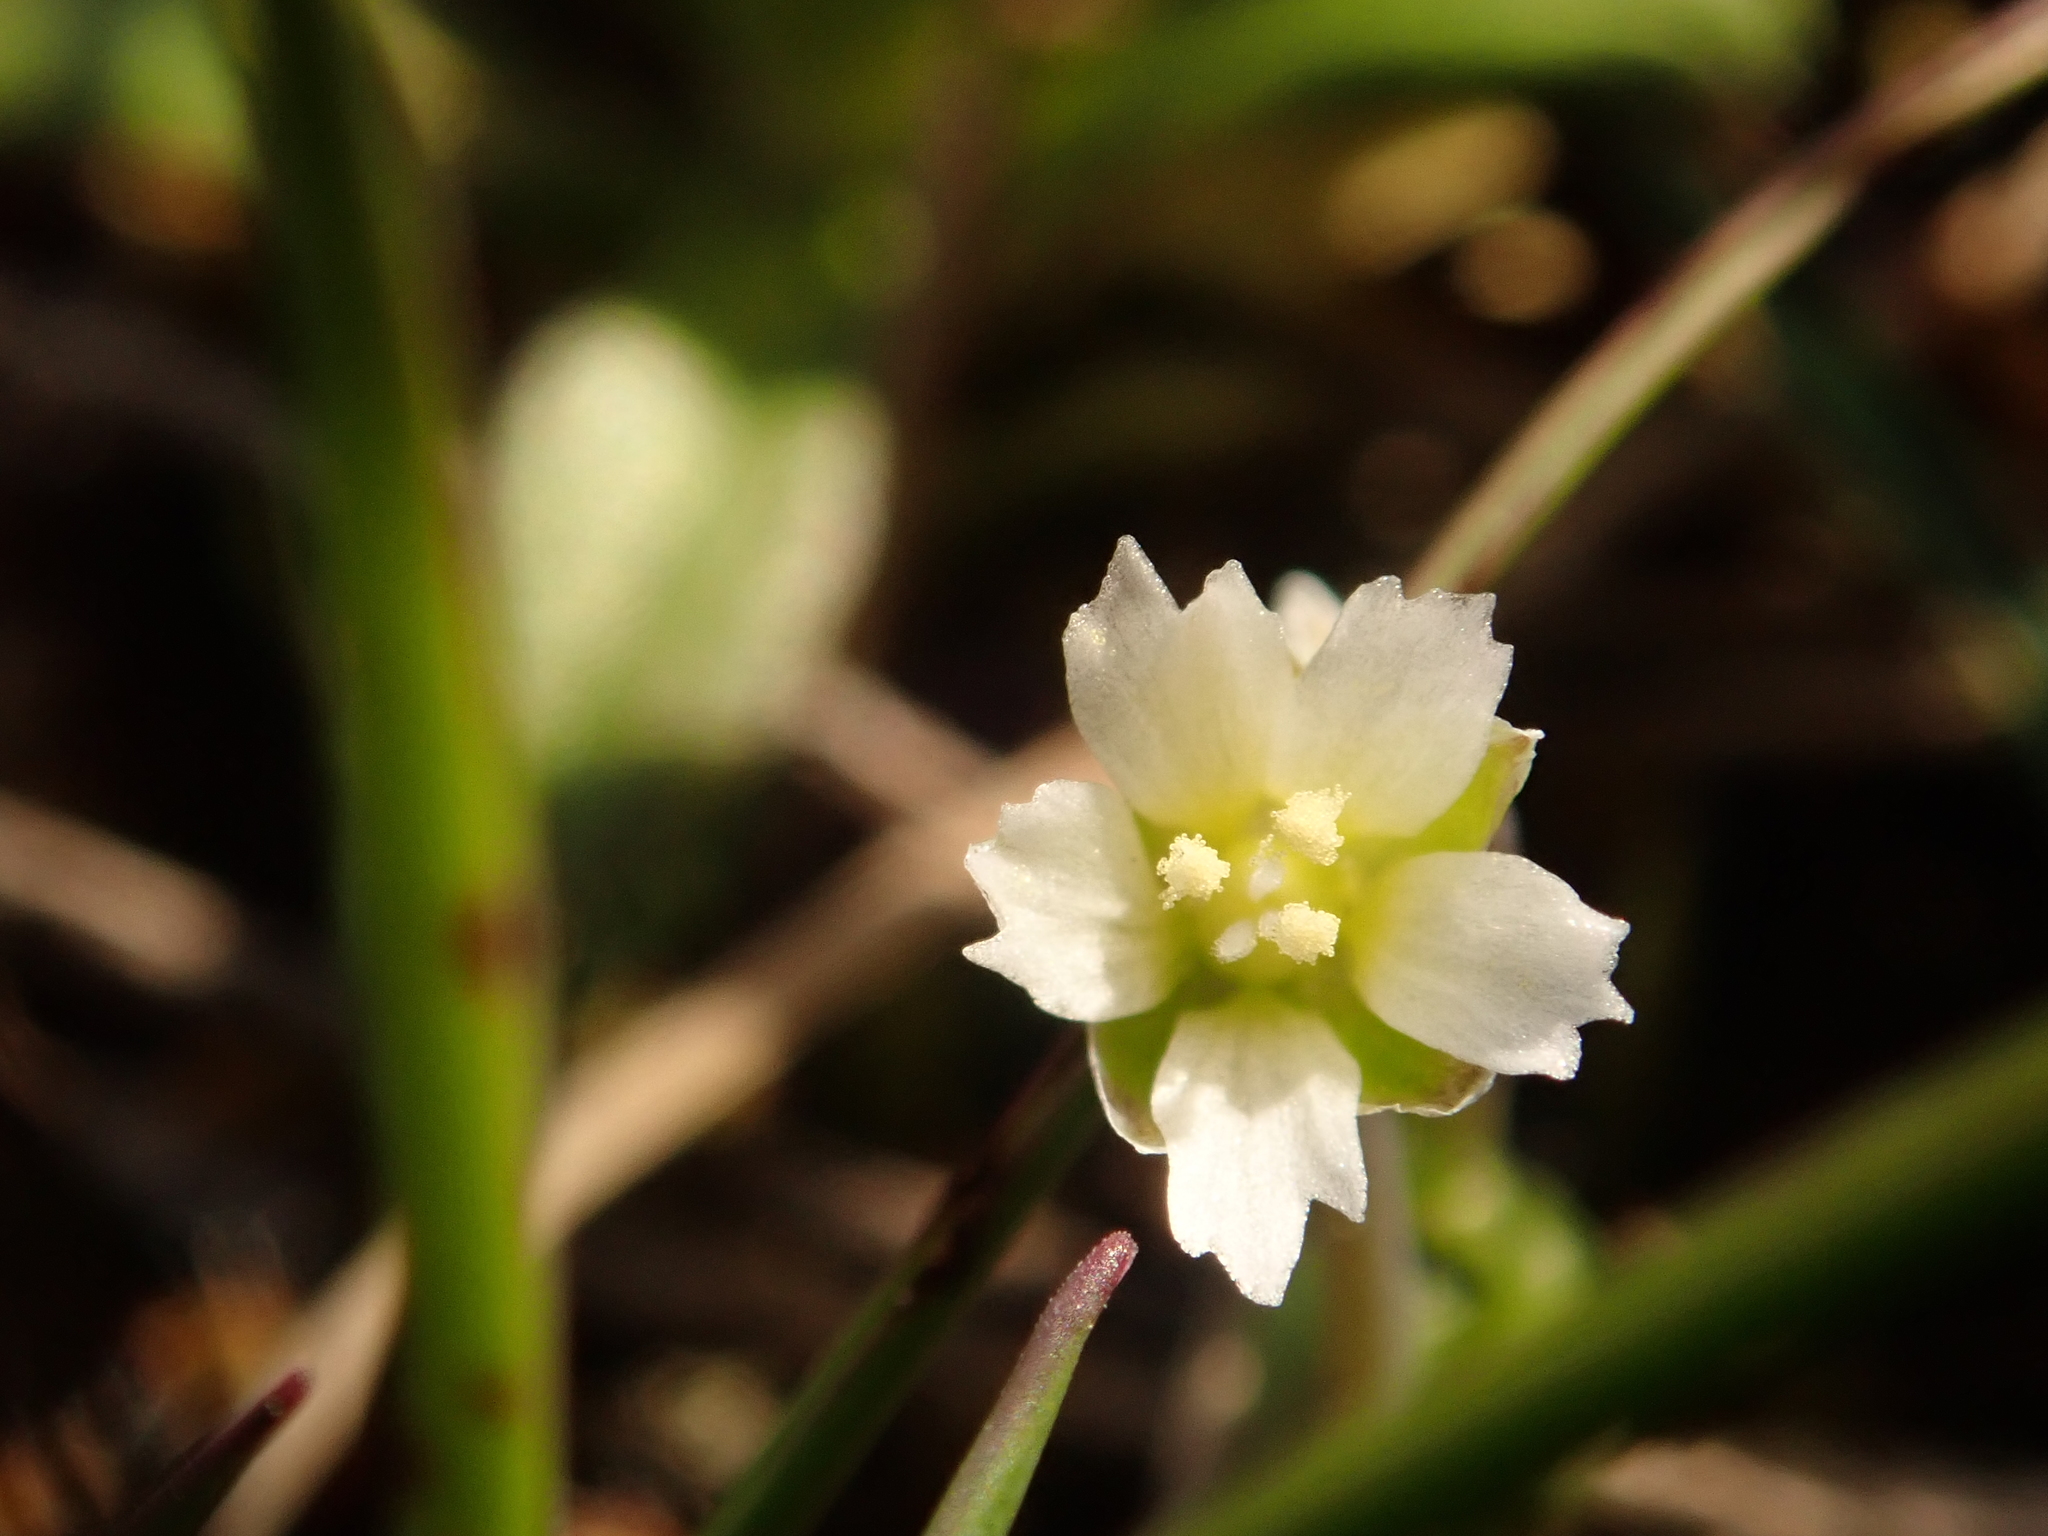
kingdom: Plantae
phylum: Tracheophyta
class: Magnoliopsida
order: Caryophyllales
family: Caryophyllaceae
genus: Holosteum
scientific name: Holosteum umbellatum
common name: Jagged chickweed
